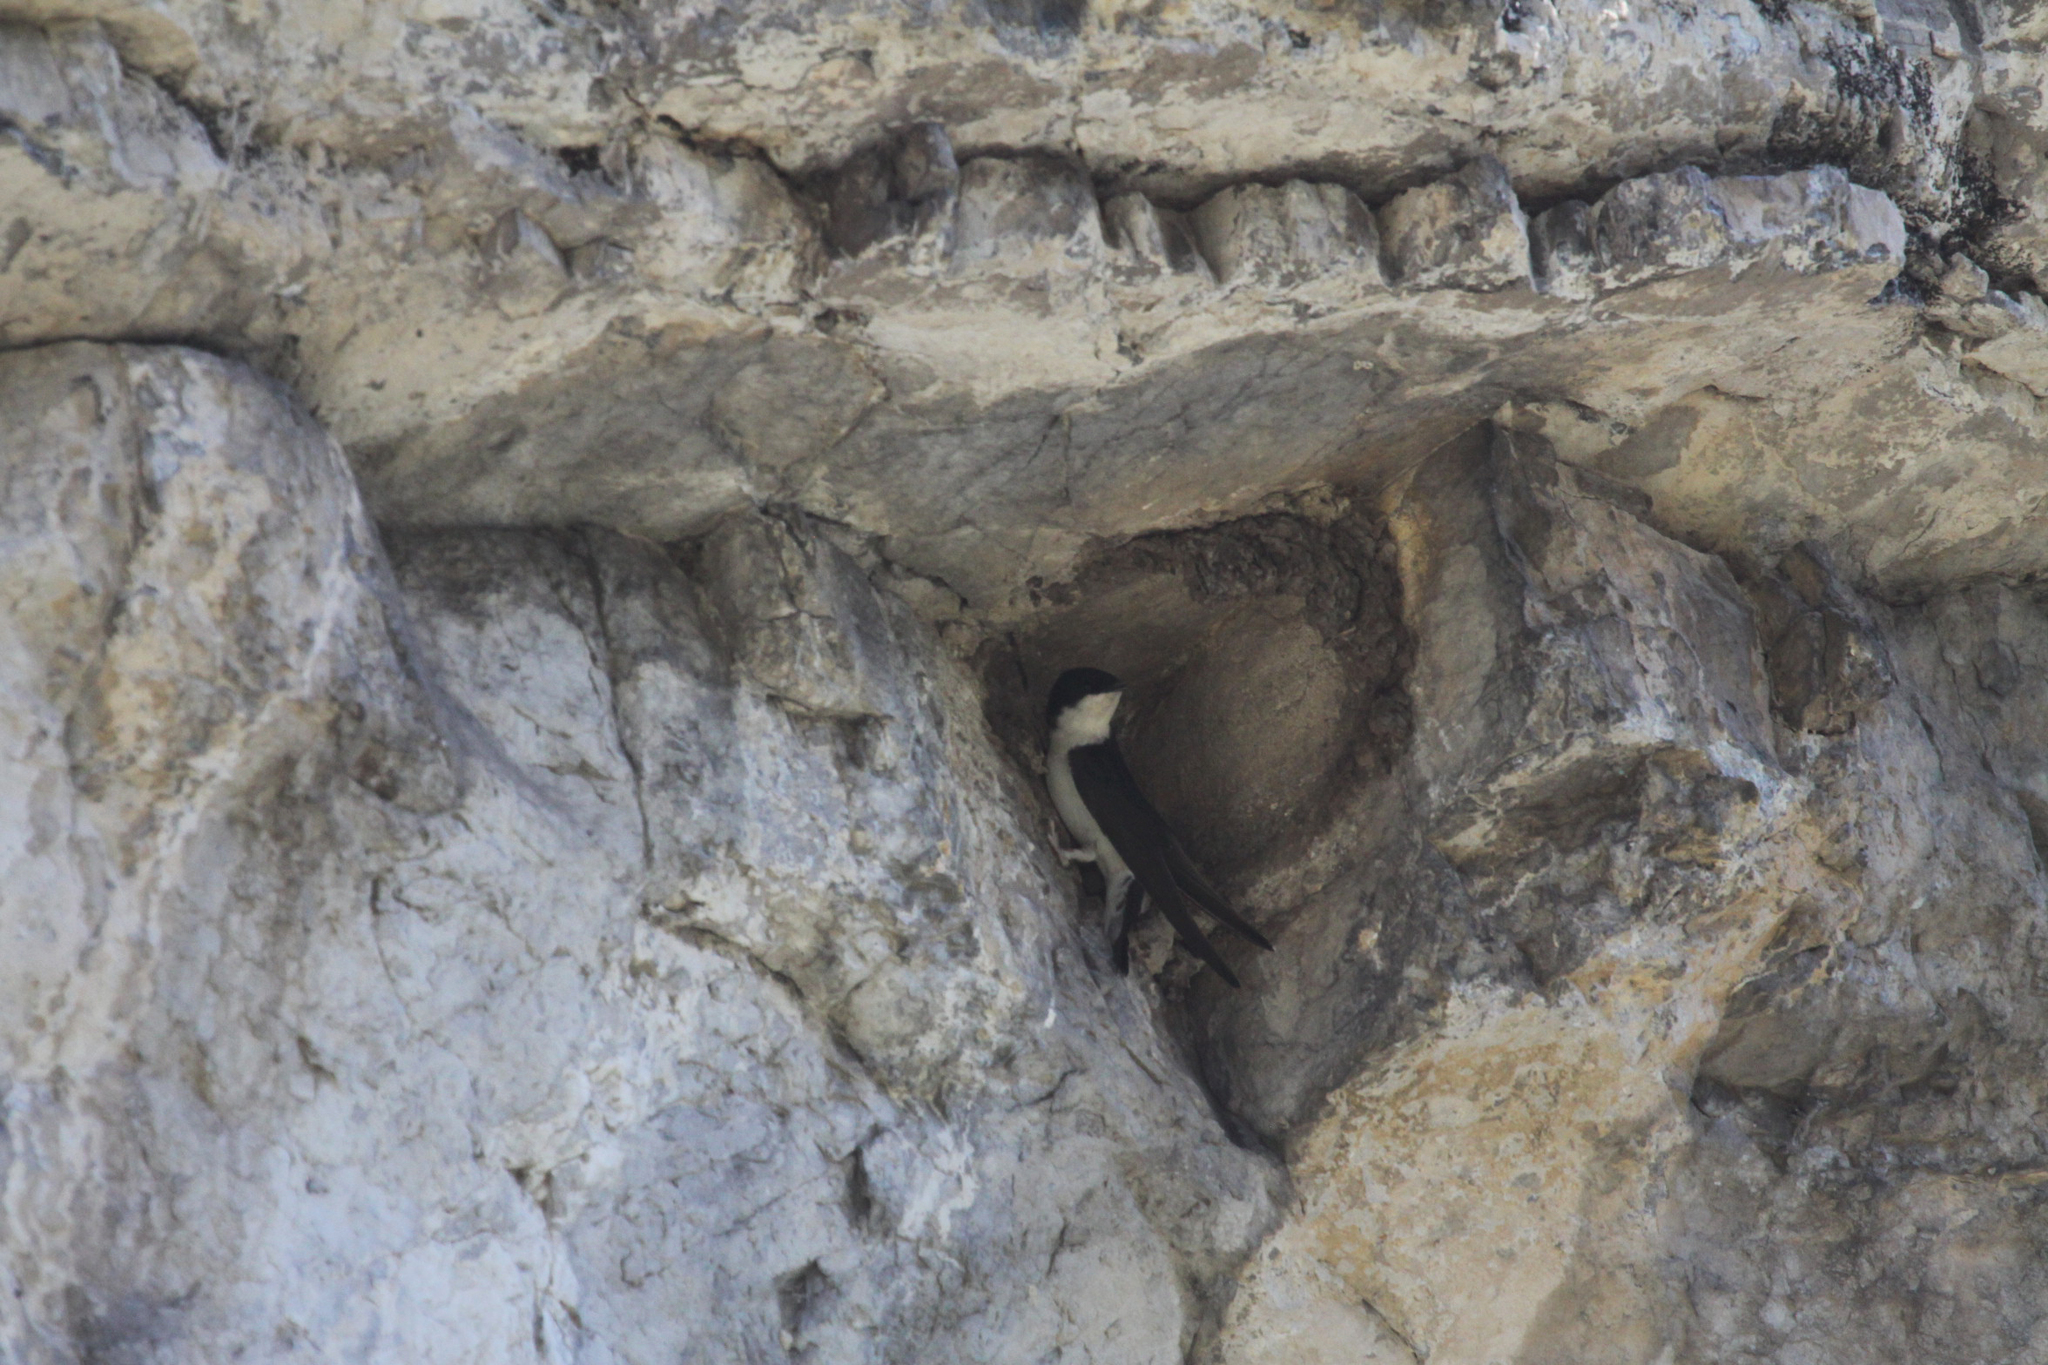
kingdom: Animalia
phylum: Chordata
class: Aves
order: Passeriformes
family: Hirundinidae
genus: Delichon
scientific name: Delichon urbicum
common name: Common house martin
